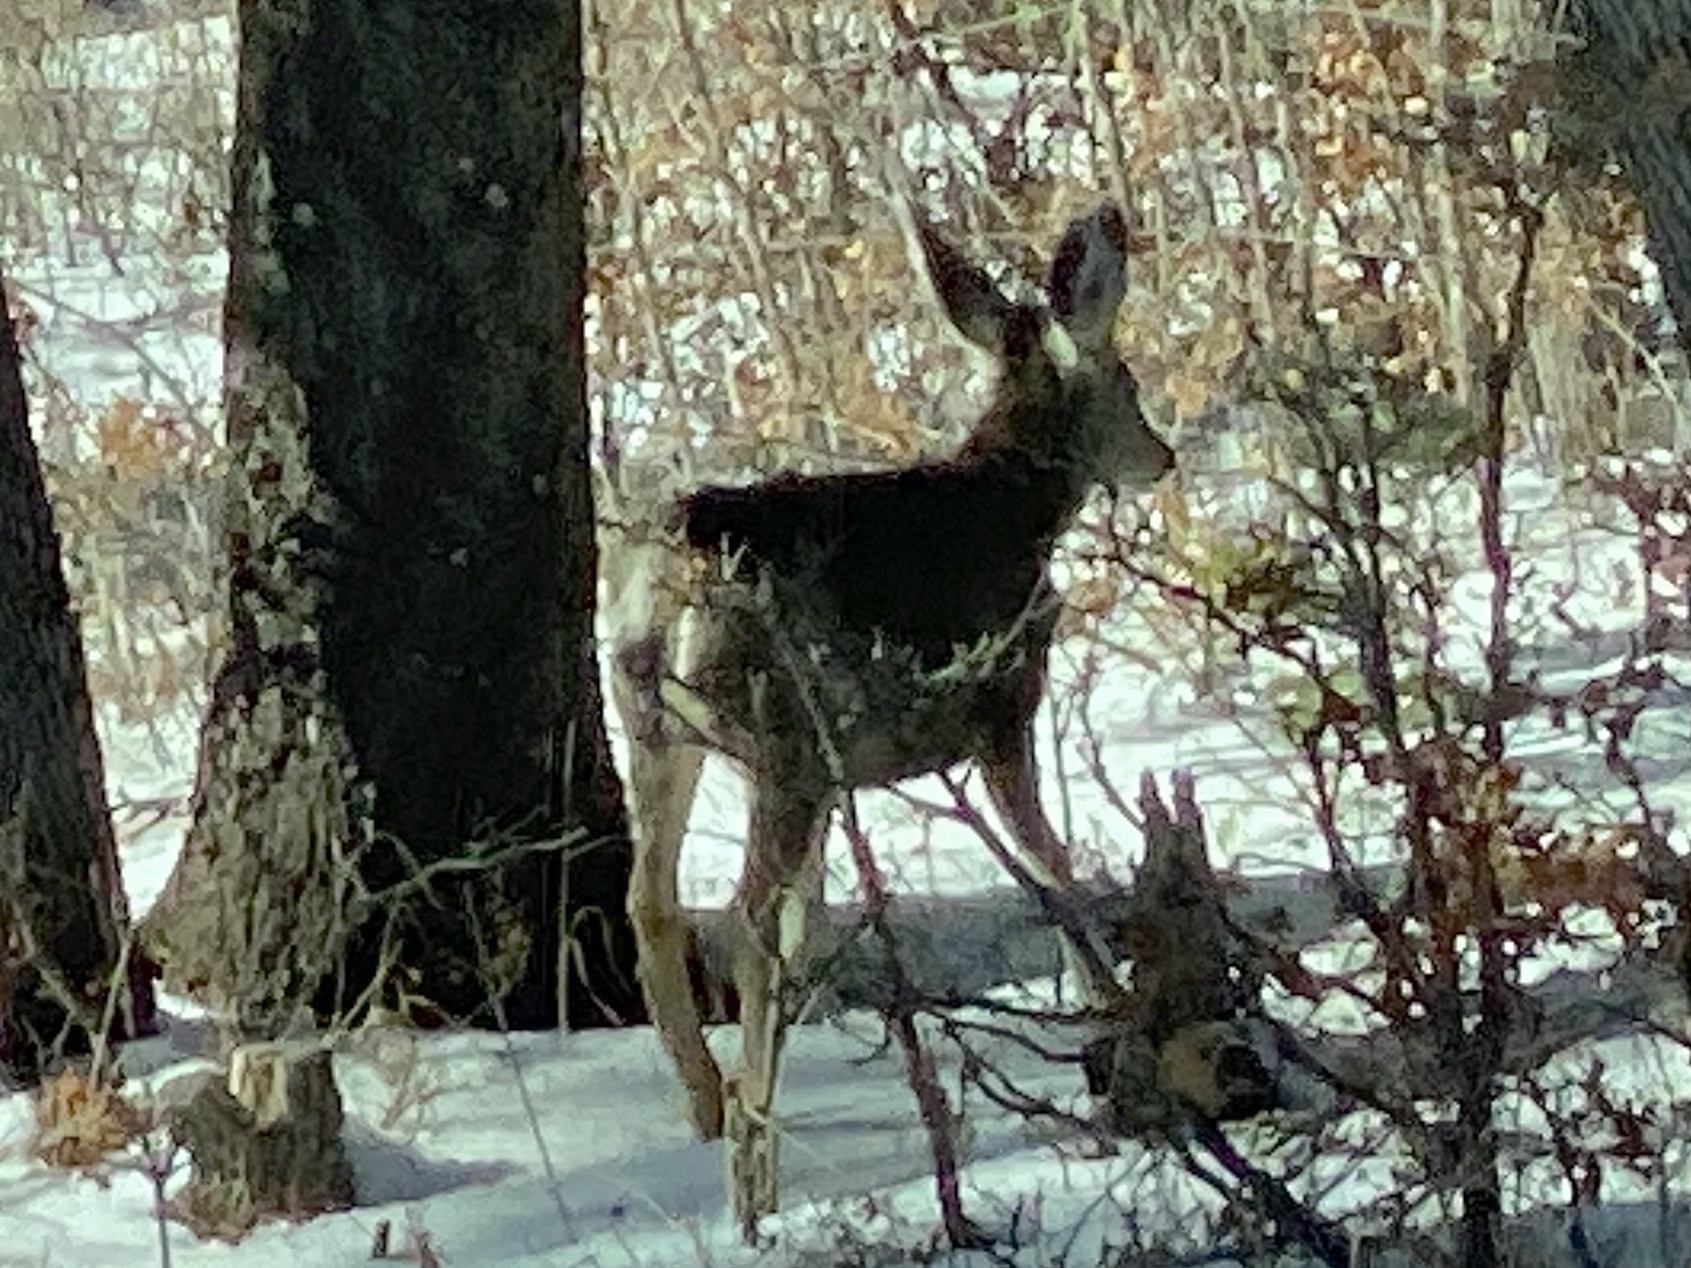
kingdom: Animalia
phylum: Chordata
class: Mammalia
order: Artiodactyla
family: Cervidae
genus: Odocoileus
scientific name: Odocoileus hemionus
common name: Mule deer
